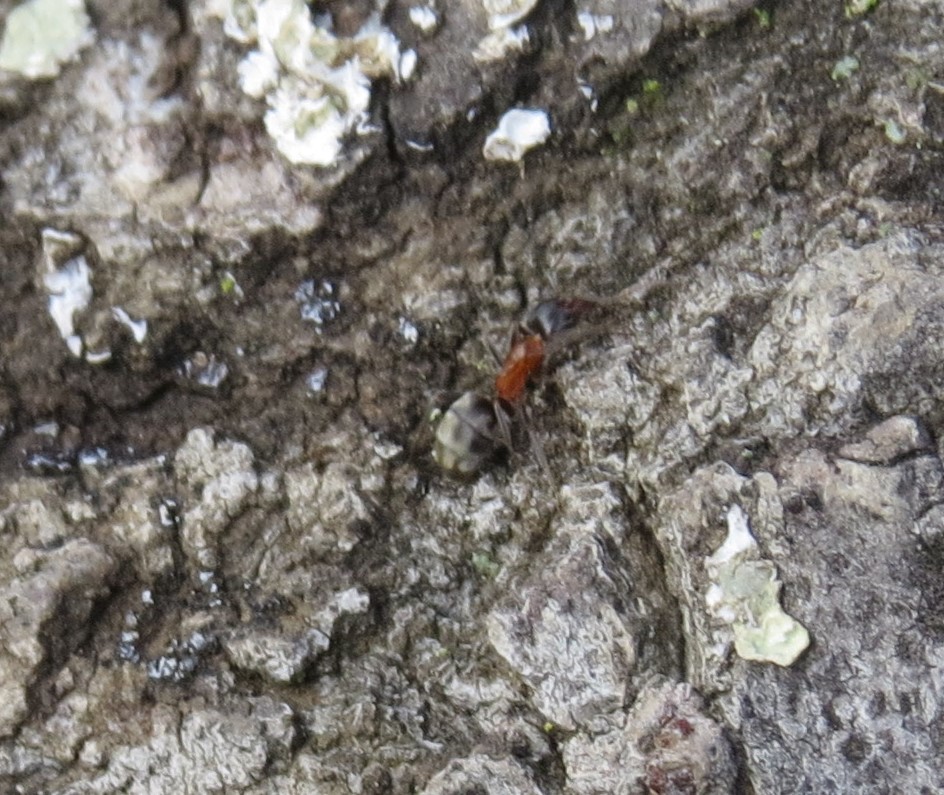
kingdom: Animalia
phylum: Arthropoda
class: Insecta
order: Hymenoptera
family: Formicidae
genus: Liometopum
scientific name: Liometopum occidentale
